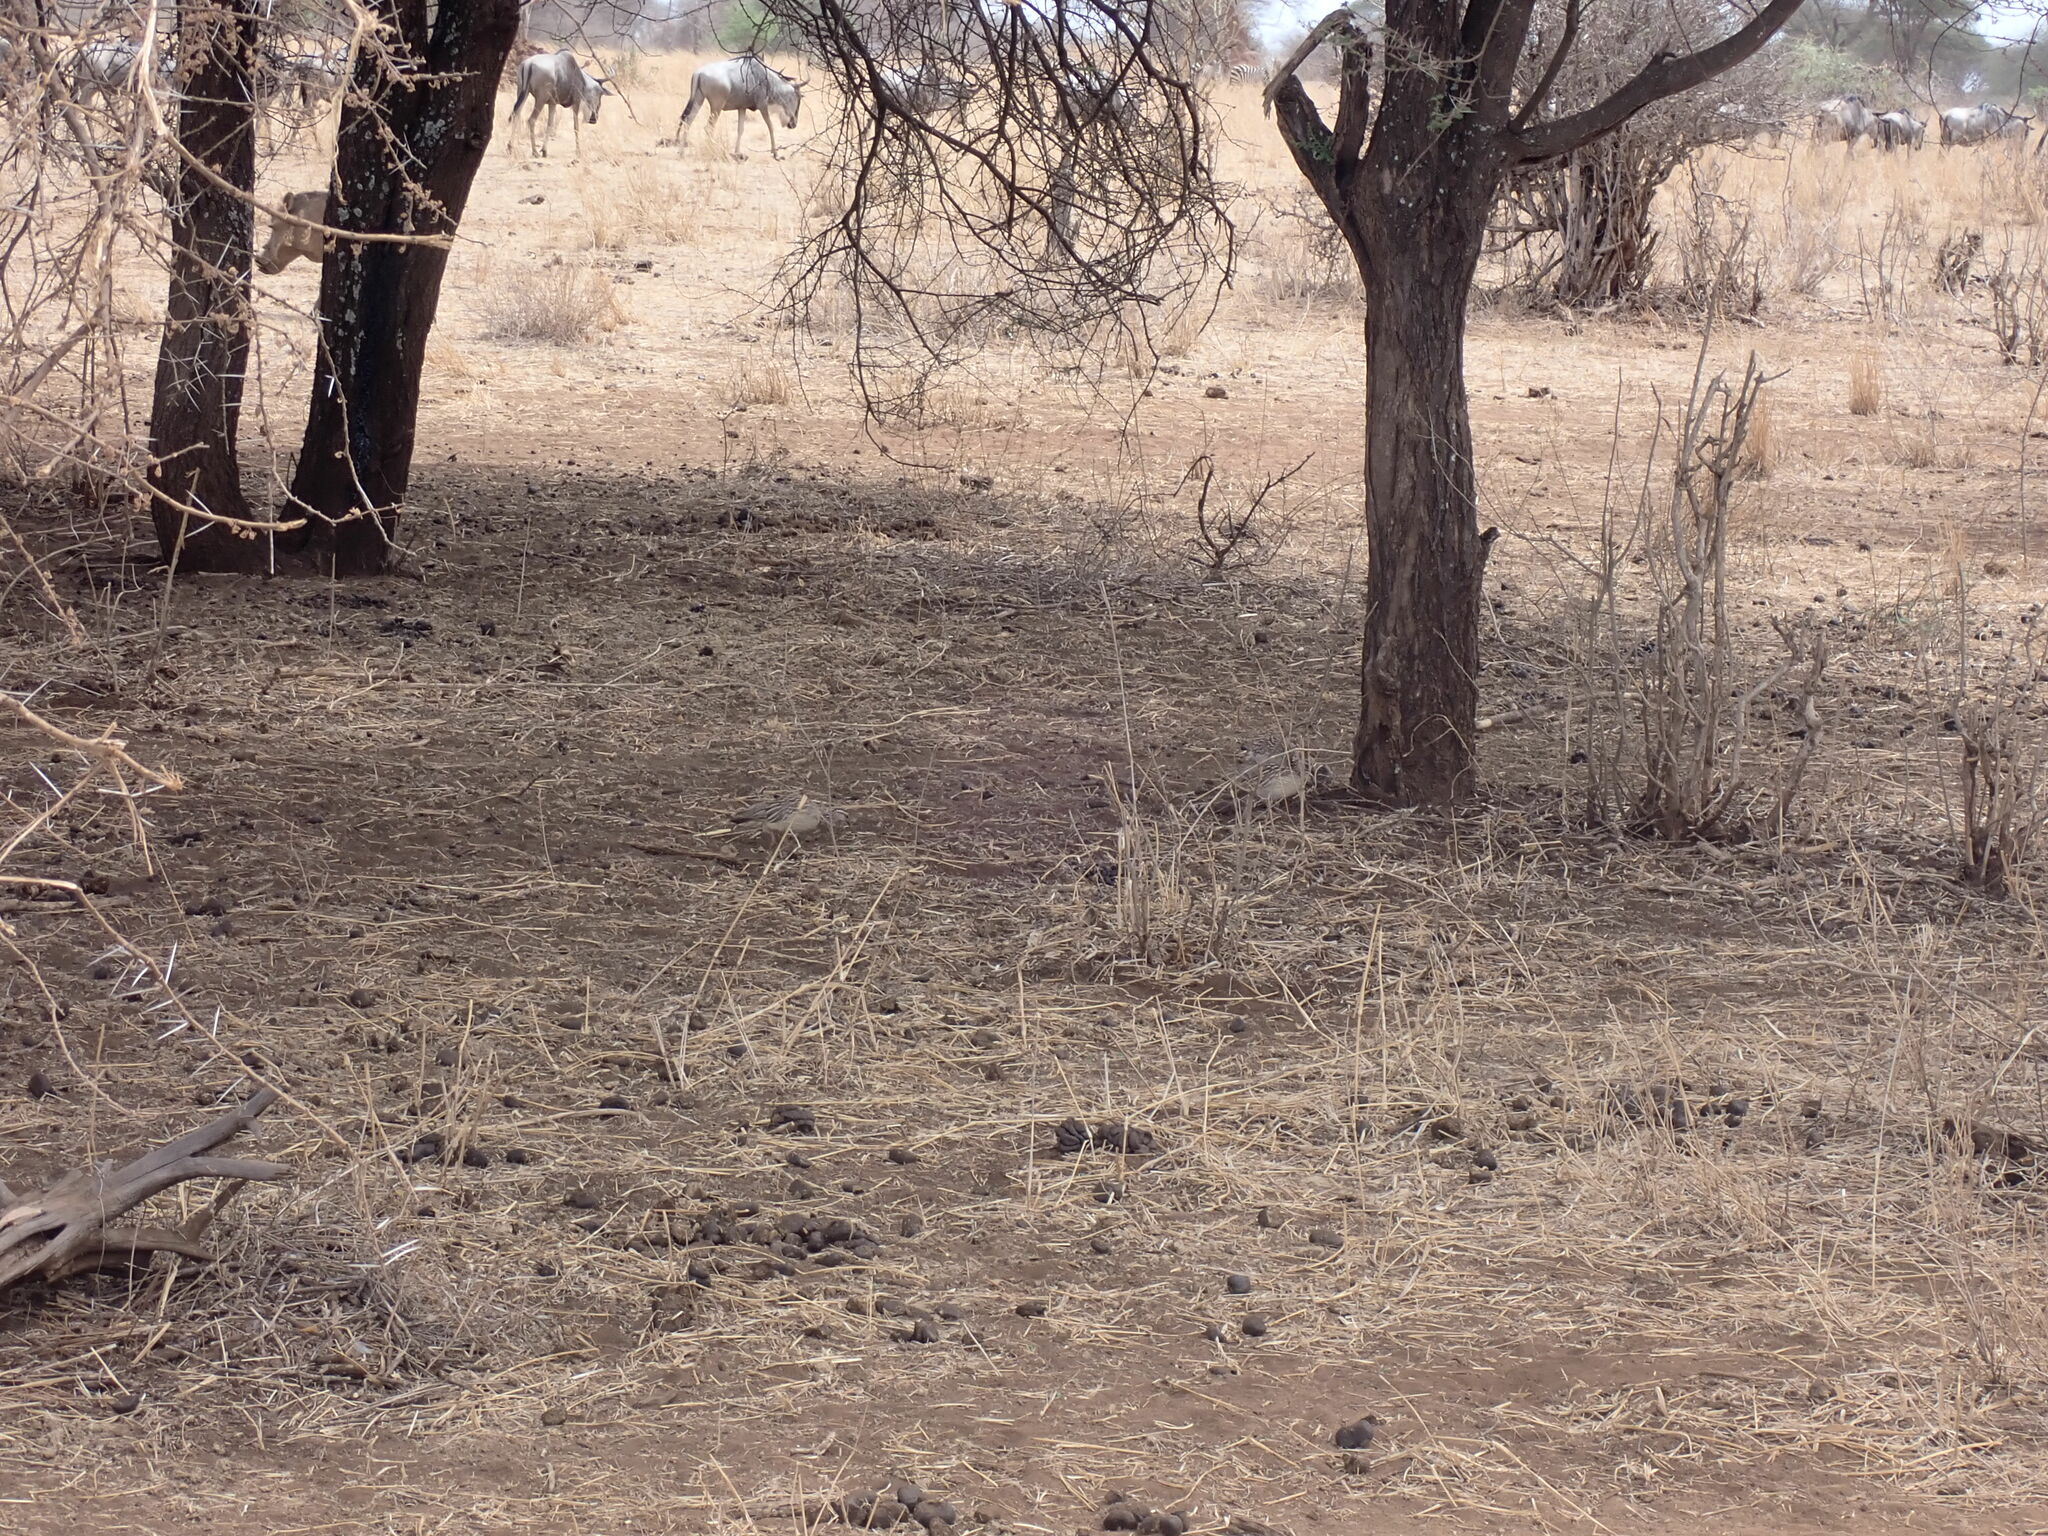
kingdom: Animalia
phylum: Chordata
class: Aves
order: Galliformes
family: Phasianidae
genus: Ortygornis
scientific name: Ortygornis sephaena
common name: Crested francolin
